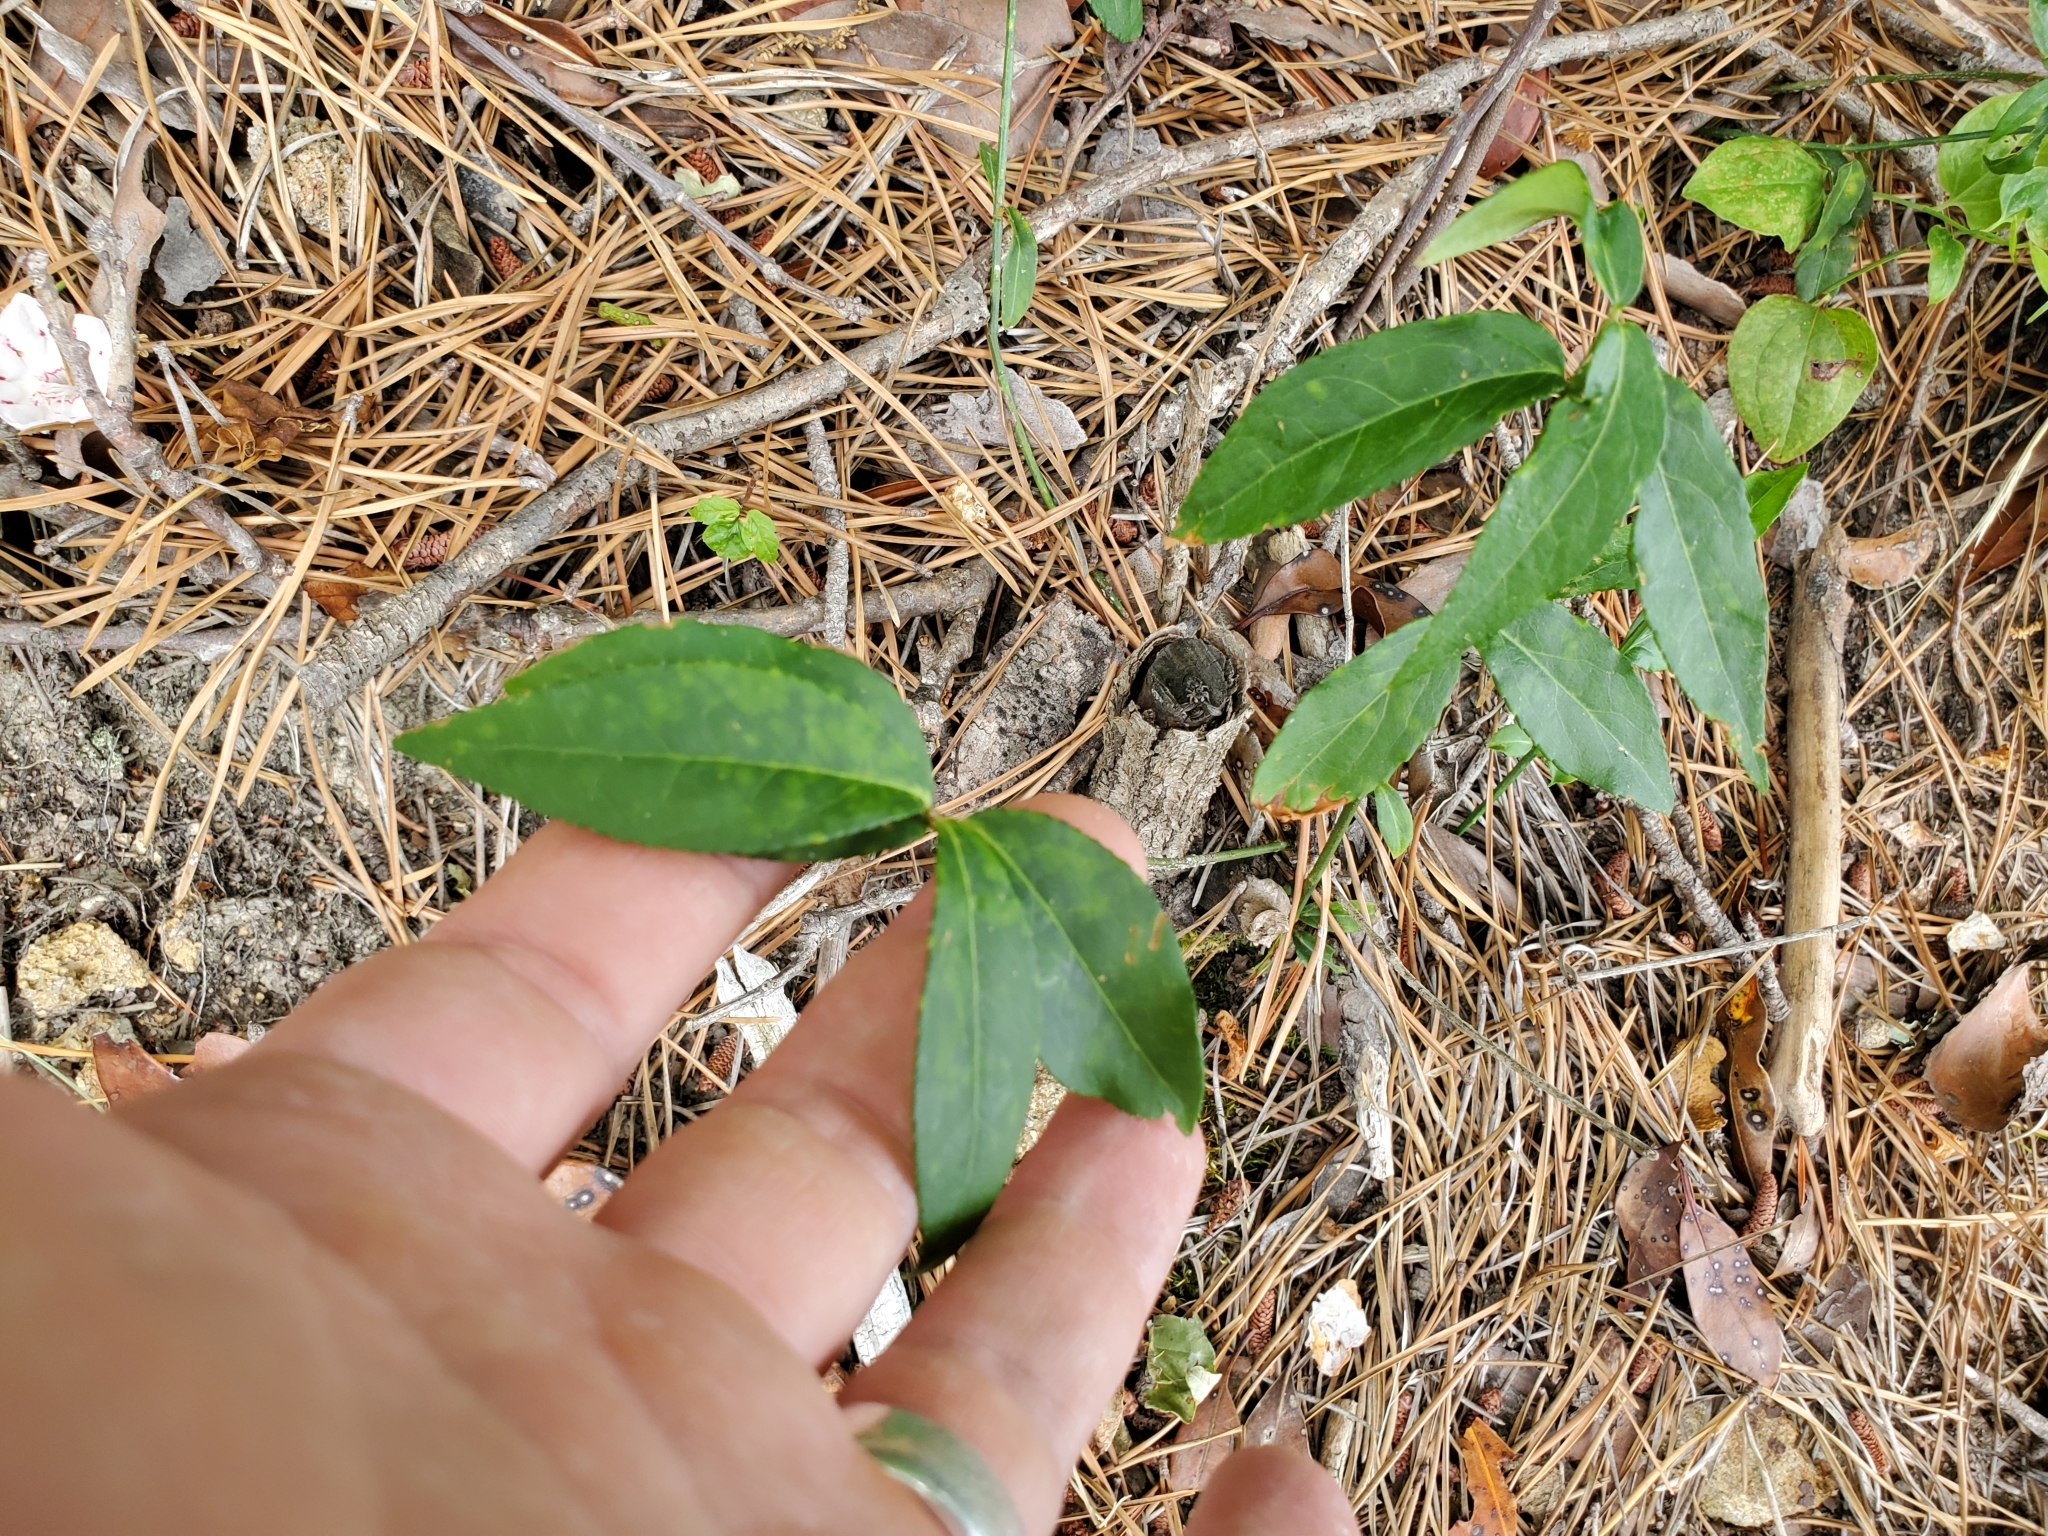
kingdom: Plantae
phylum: Tracheophyta
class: Magnoliopsida
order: Celastrales
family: Celastraceae
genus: Euonymus
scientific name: Euonymus americanus
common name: Bursting-heart
